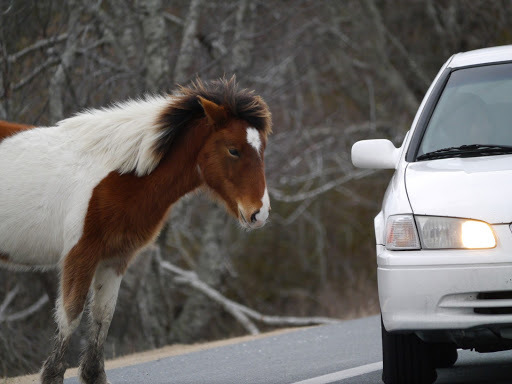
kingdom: Animalia
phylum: Chordata
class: Mammalia
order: Perissodactyla
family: Equidae
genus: Equus
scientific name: Equus caballus
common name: Horse
